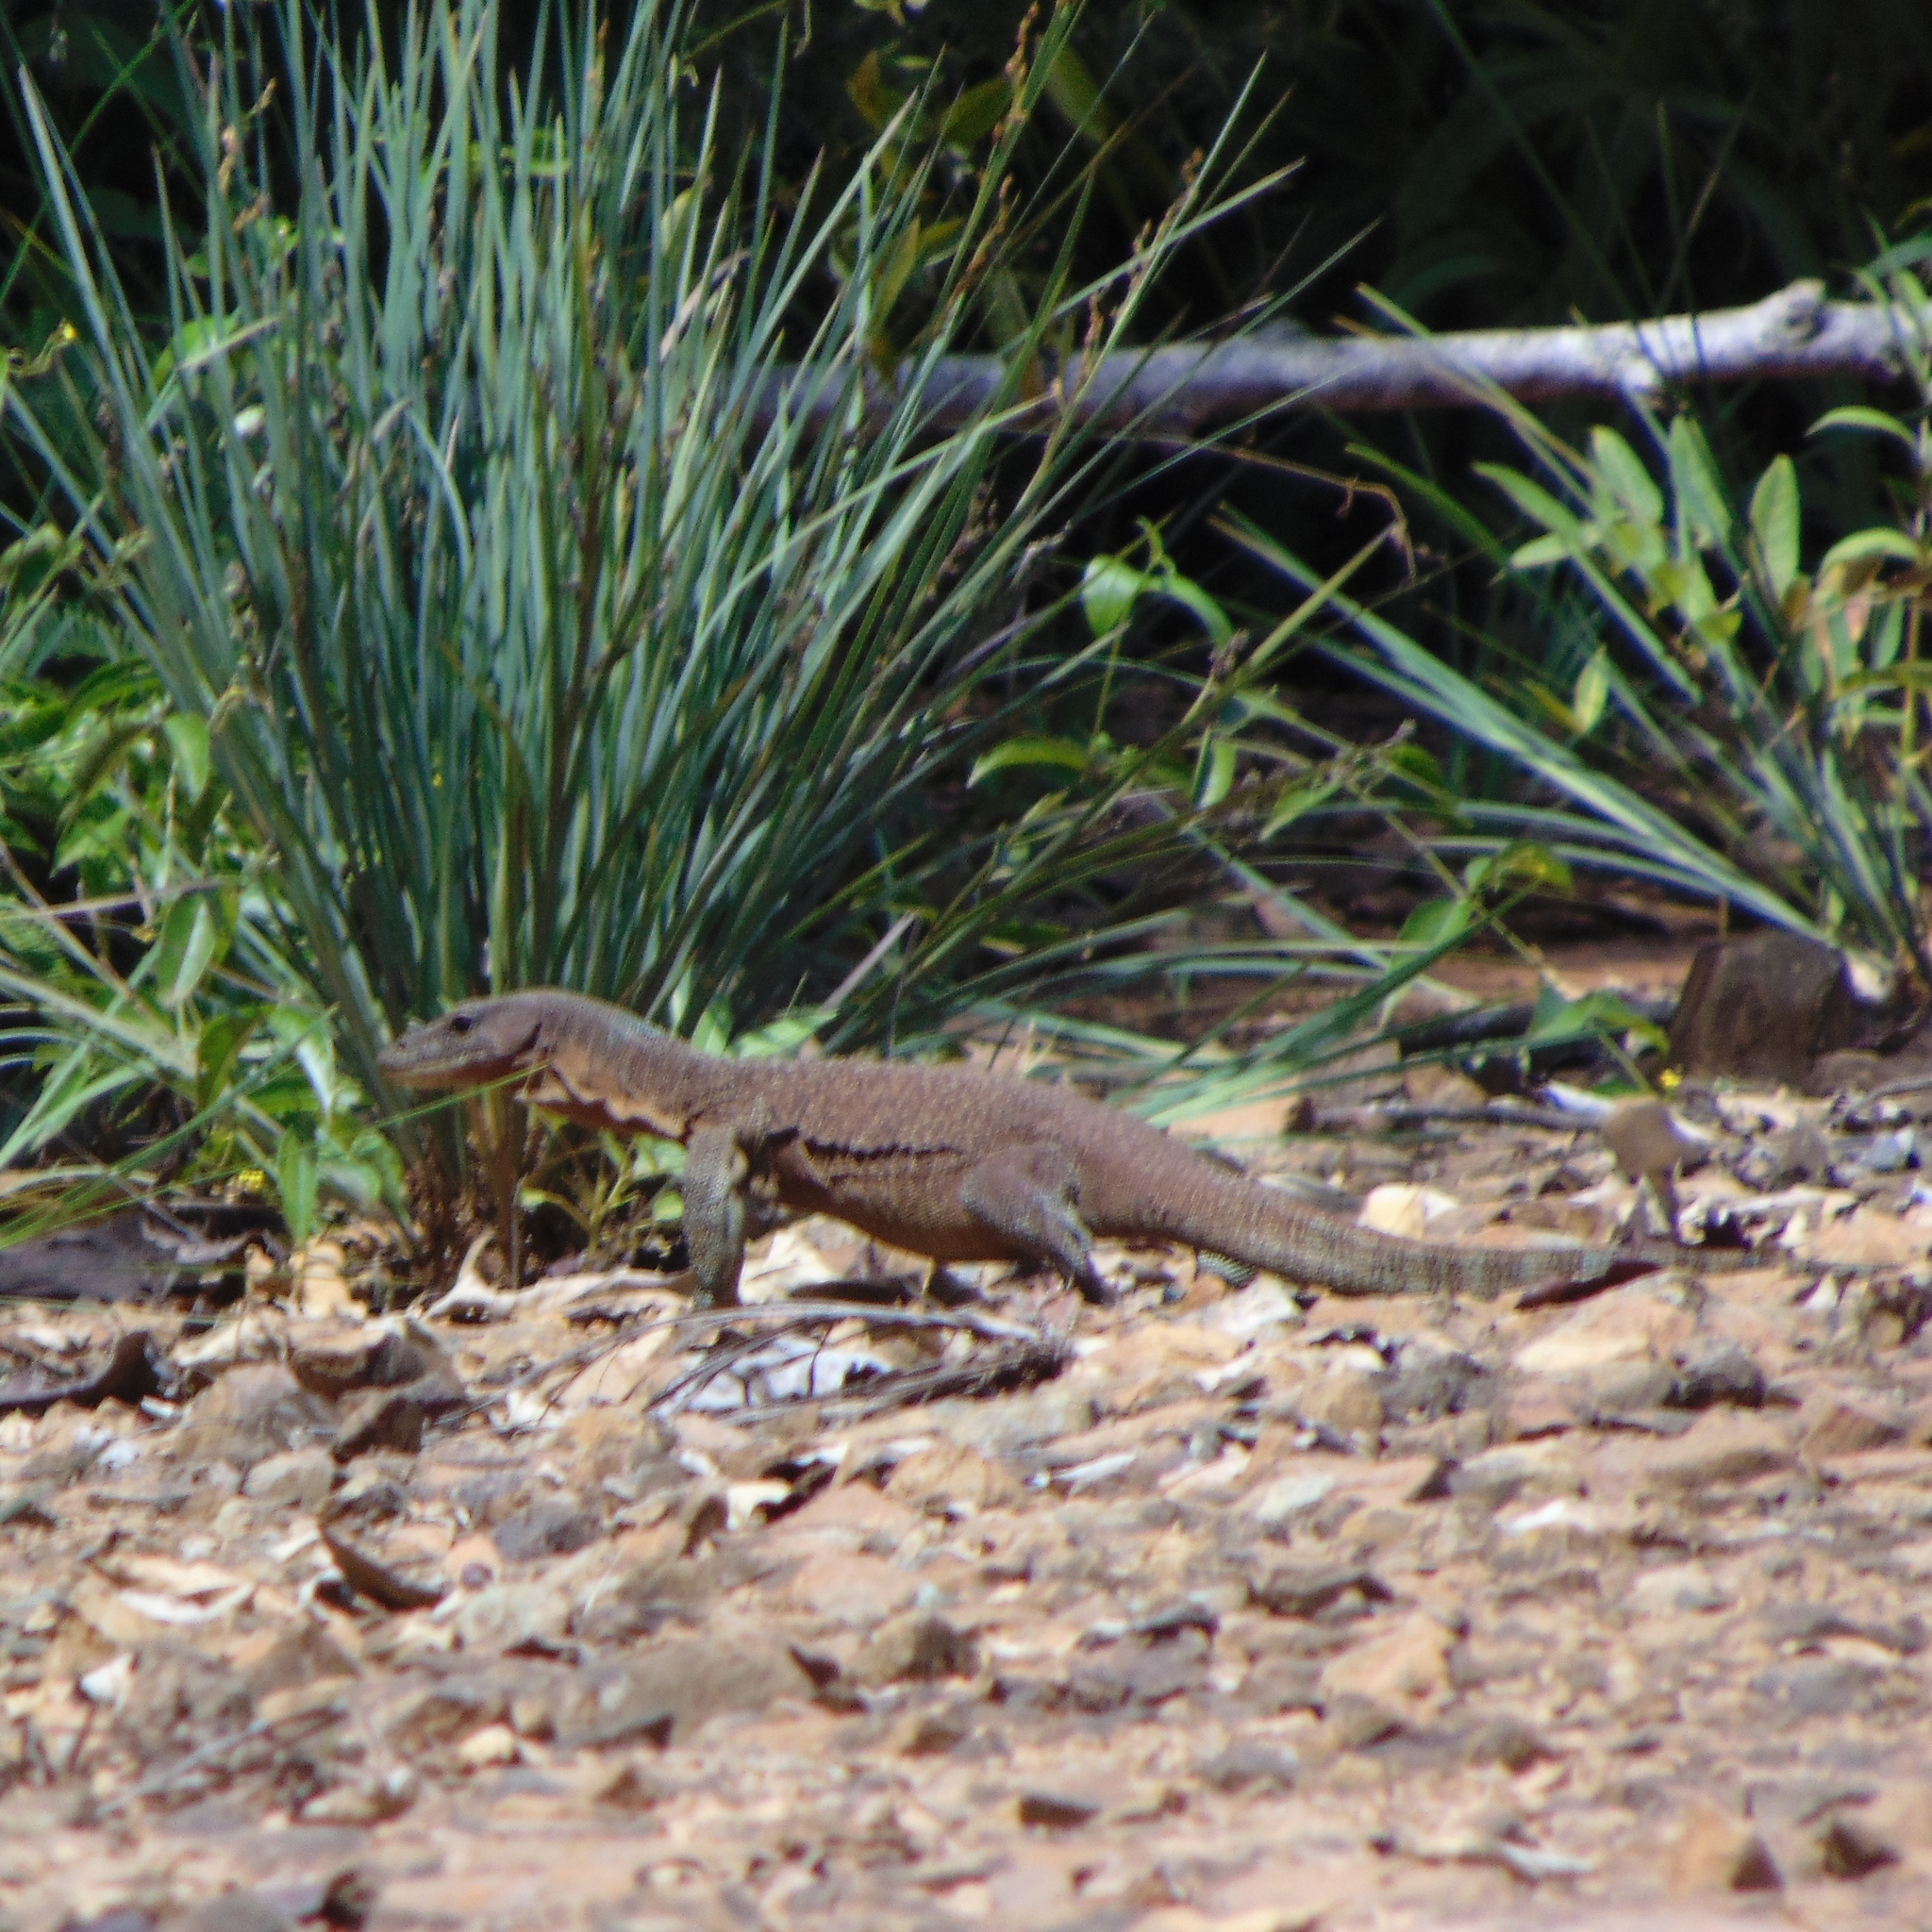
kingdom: Animalia
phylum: Chordata
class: Squamata
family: Varanidae
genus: Varanus
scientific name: Varanus caerulivirens
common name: Turquoise monitor
